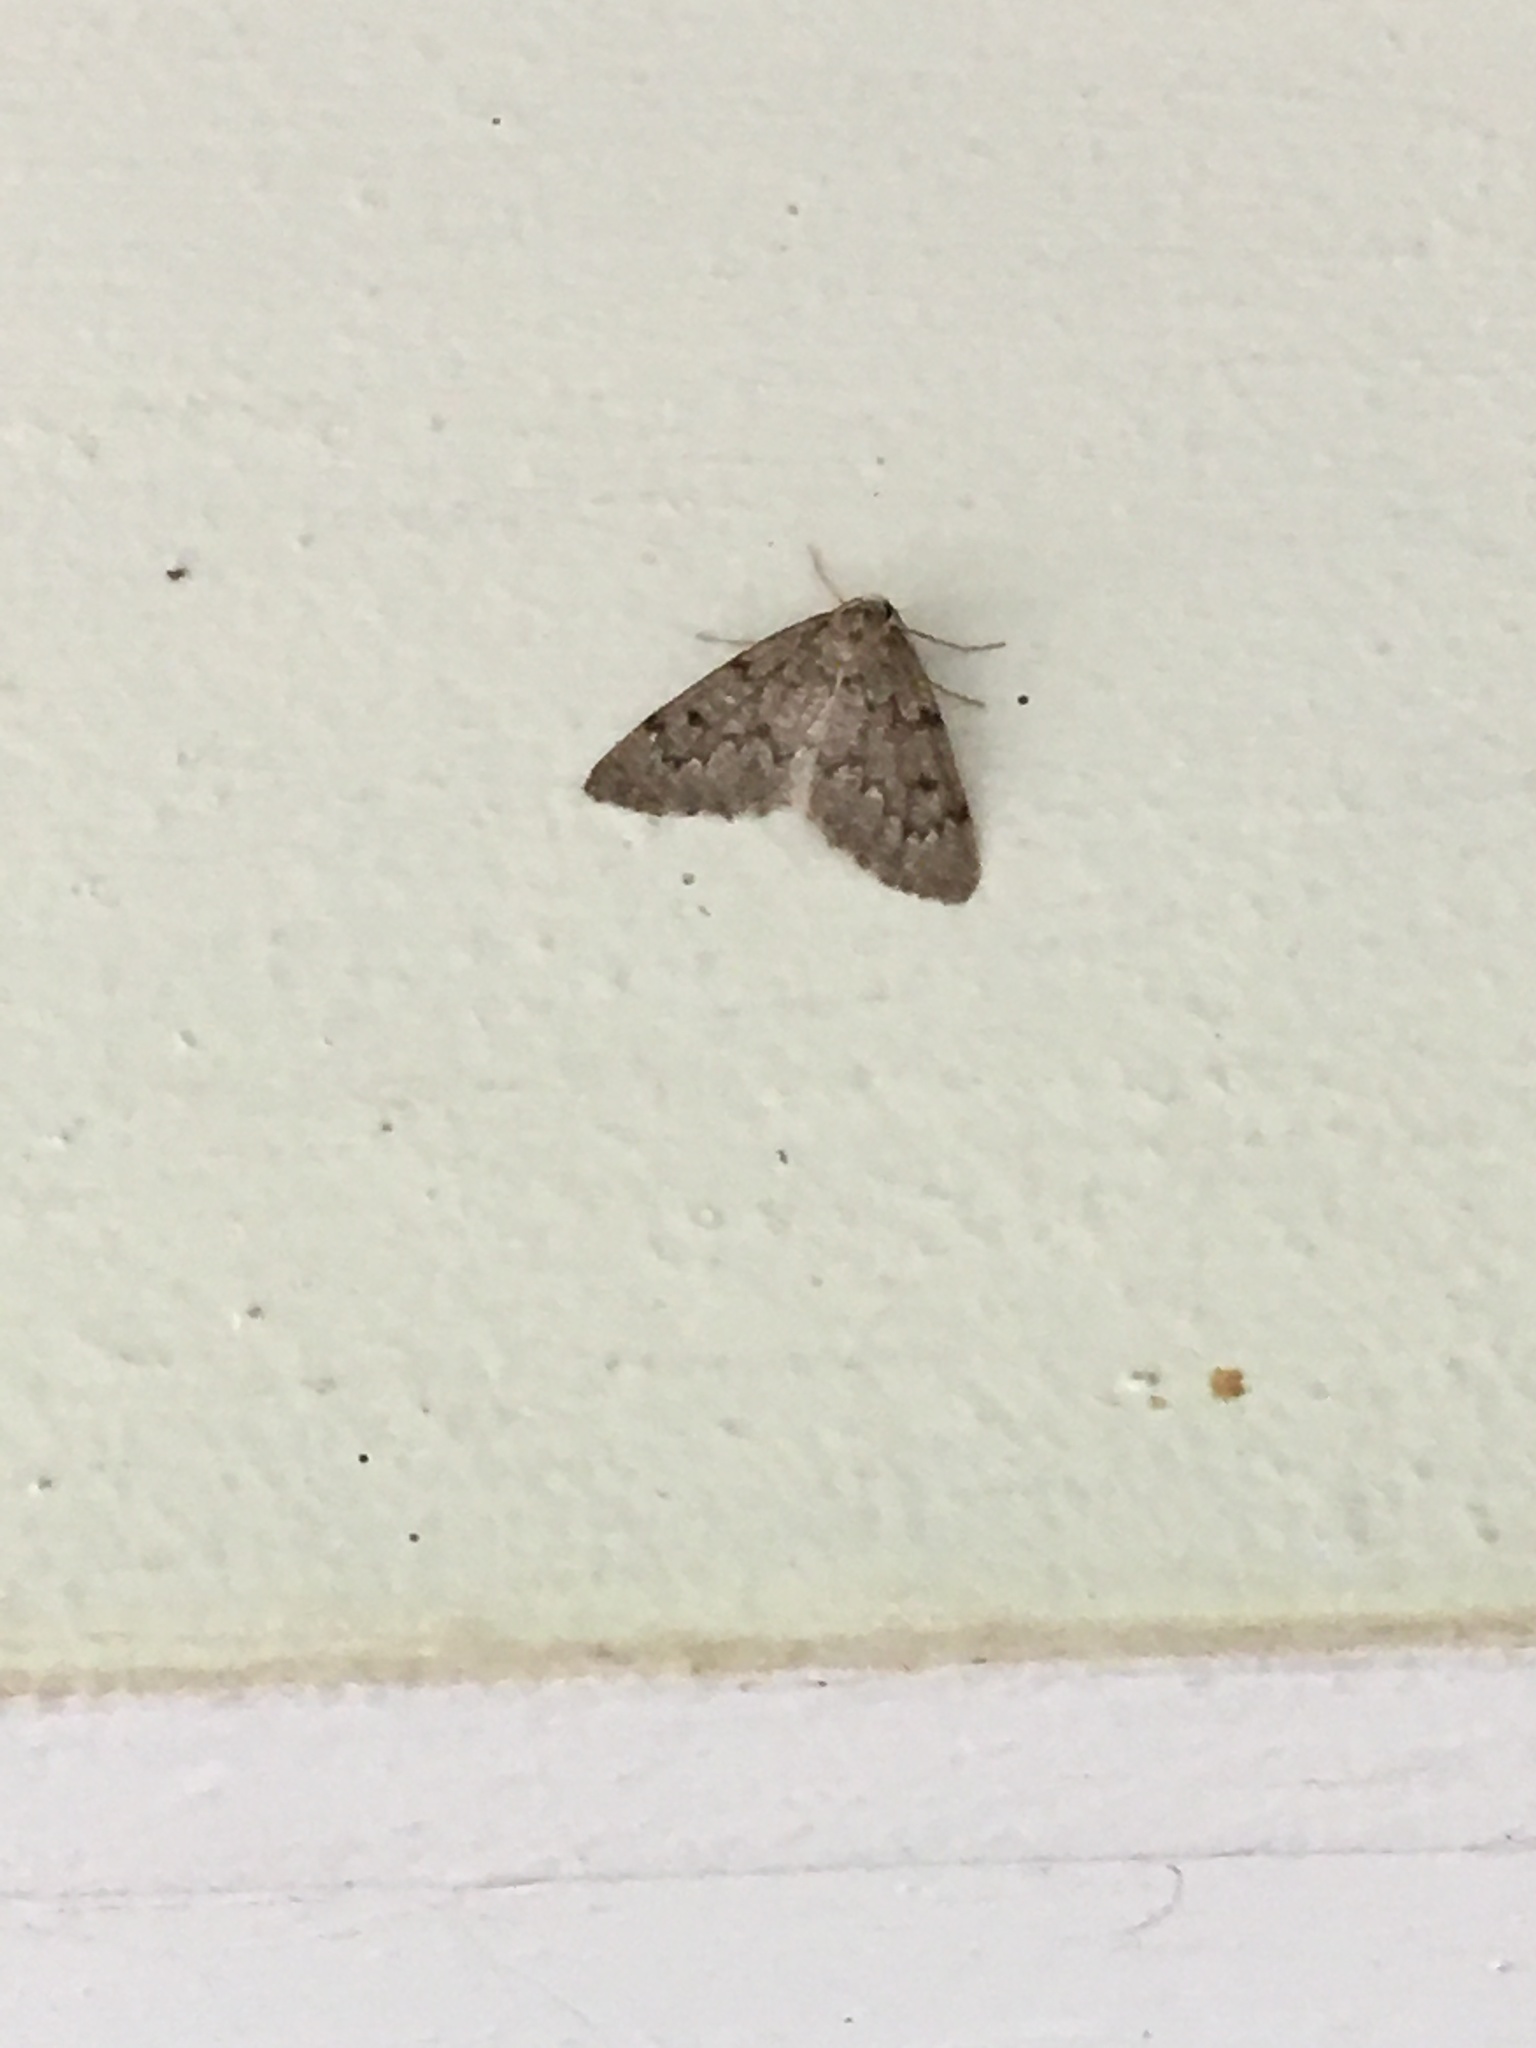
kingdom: Animalia
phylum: Arthropoda
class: Insecta
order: Lepidoptera
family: Geometridae
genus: Nepytia
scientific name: Nepytia canosaria
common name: False hemlock looper
